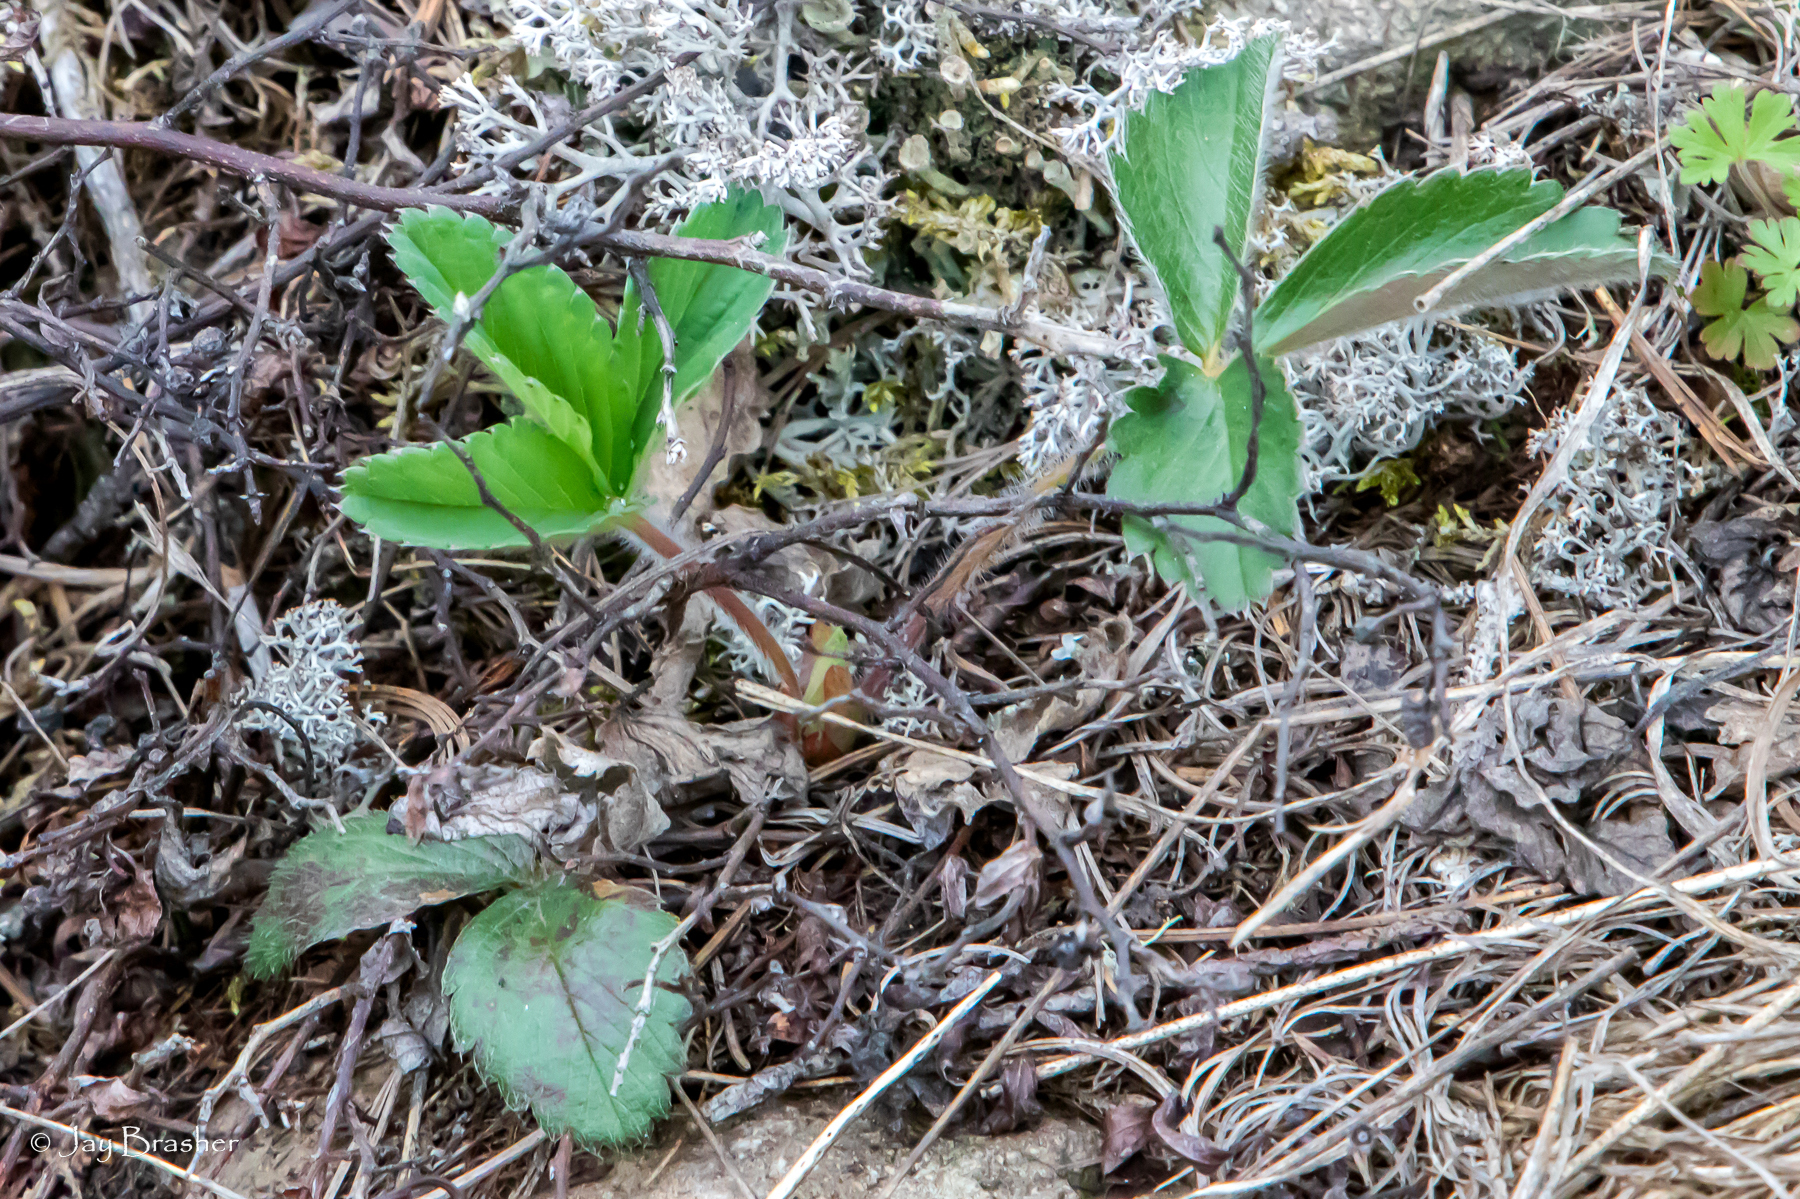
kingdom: Plantae
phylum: Tracheophyta
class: Magnoliopsida
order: Rosales
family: Rosaceae
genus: Fragaria
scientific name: Fragaria virginiana
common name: Thickleaved wild strawberry
